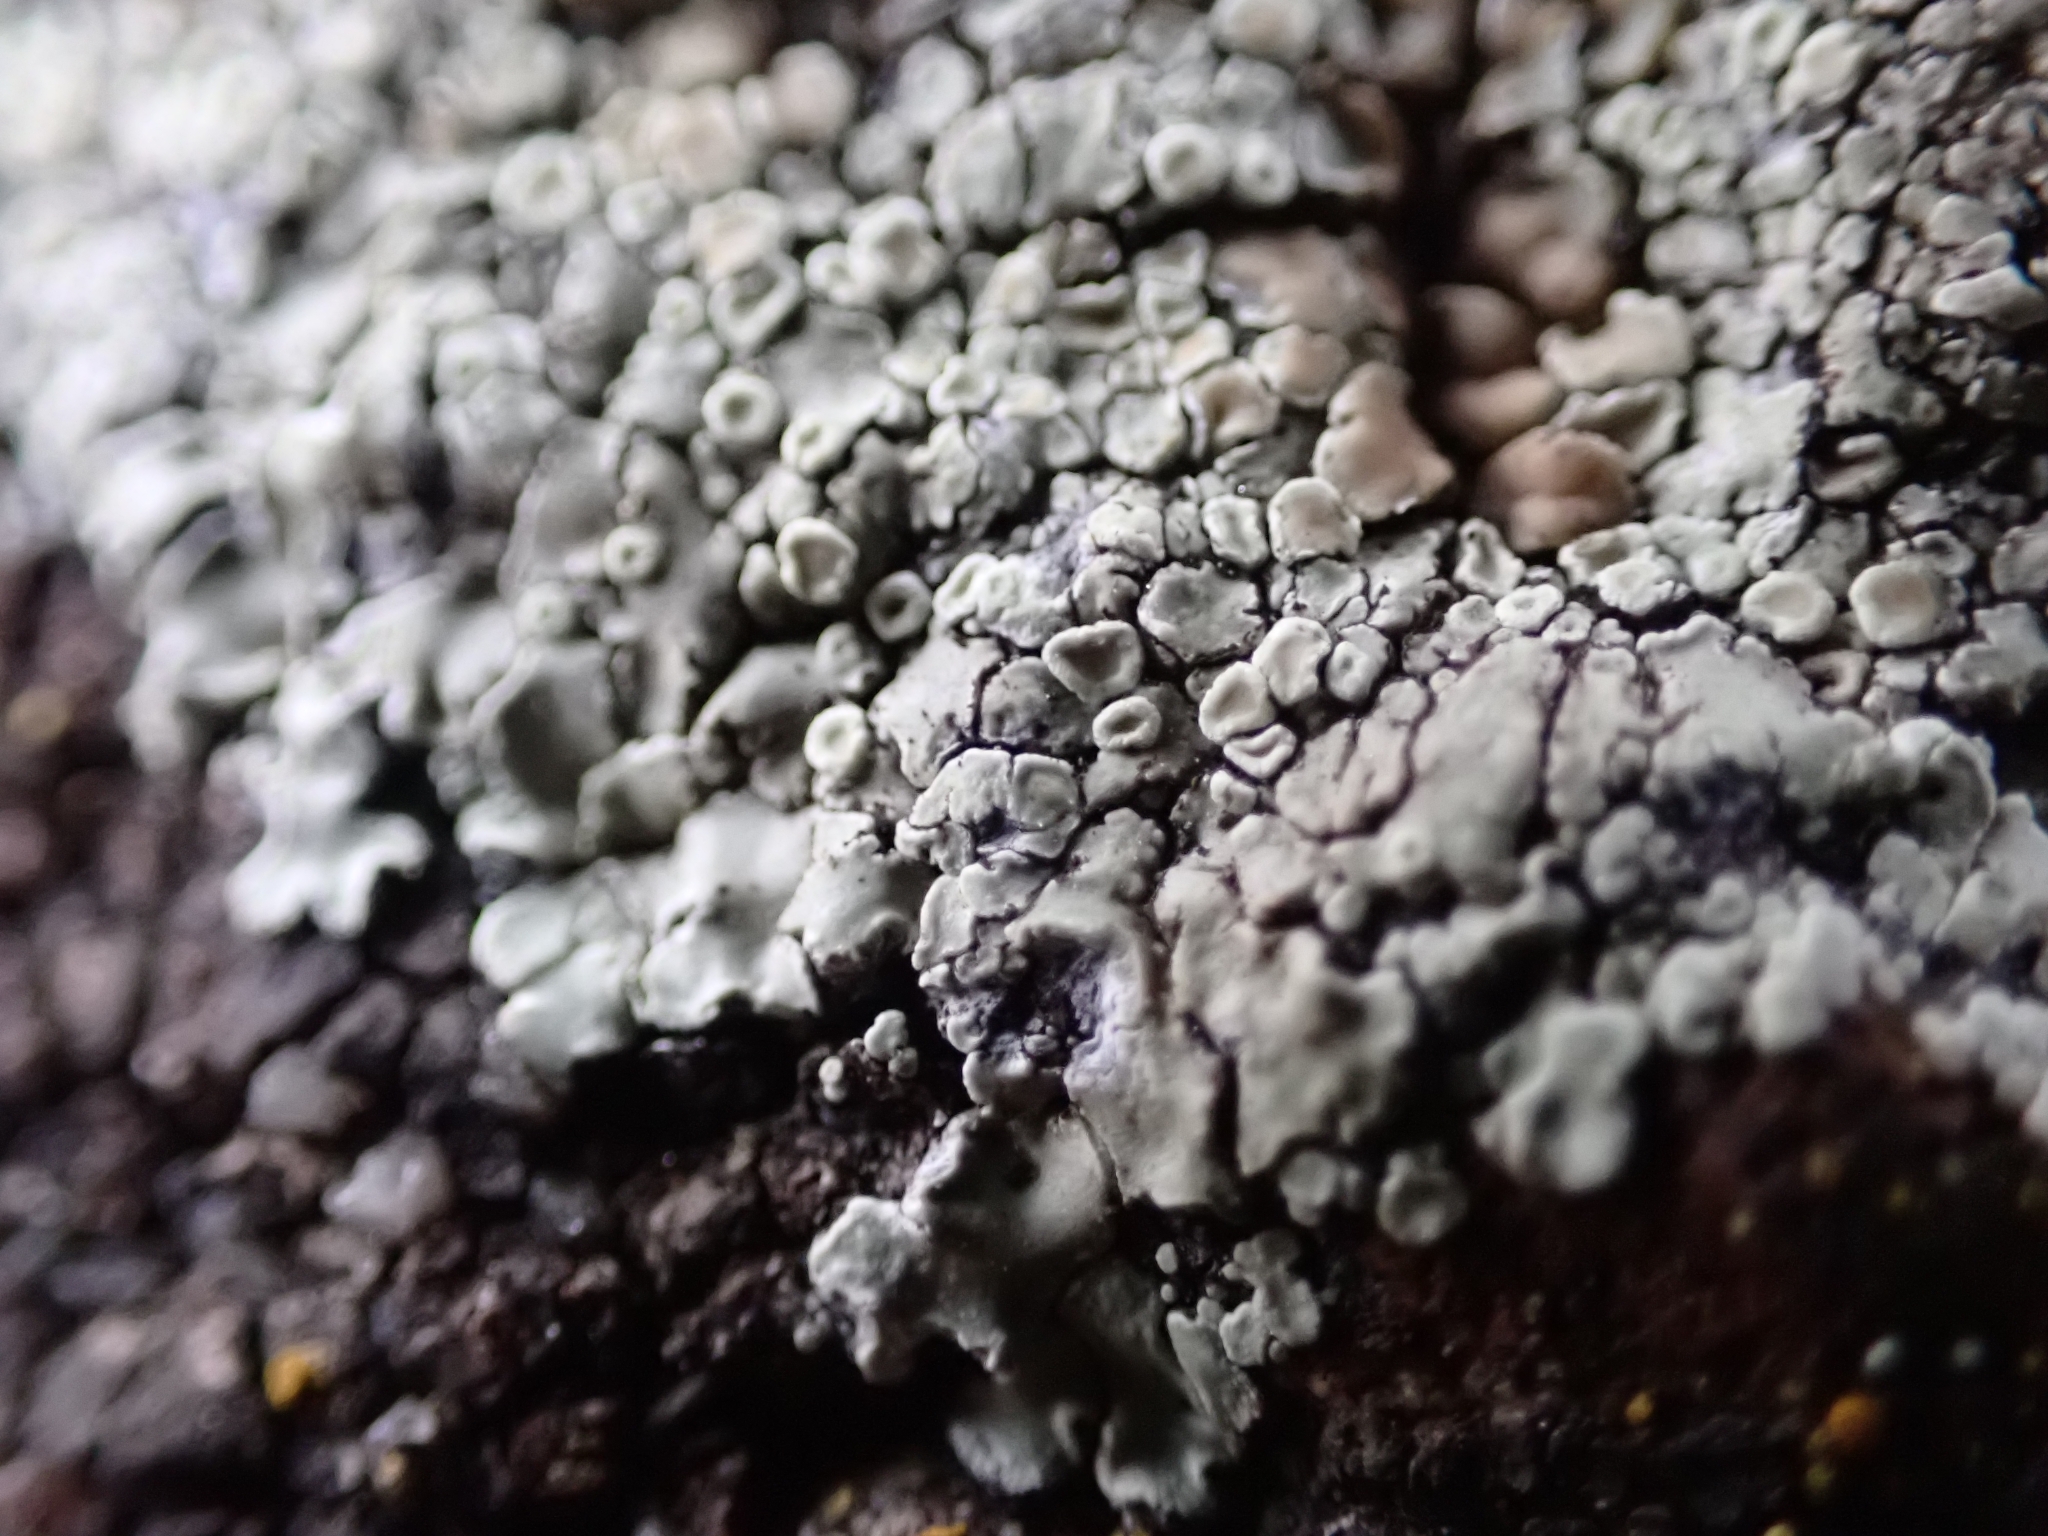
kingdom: Fungi
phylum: Ascomycota
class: Lecanoromycetes
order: Lecanorales
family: Lecanoraceae
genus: Protoparmeliopsis
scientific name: Protoparmeliopsis muralis
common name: Stonewall rim lichen
